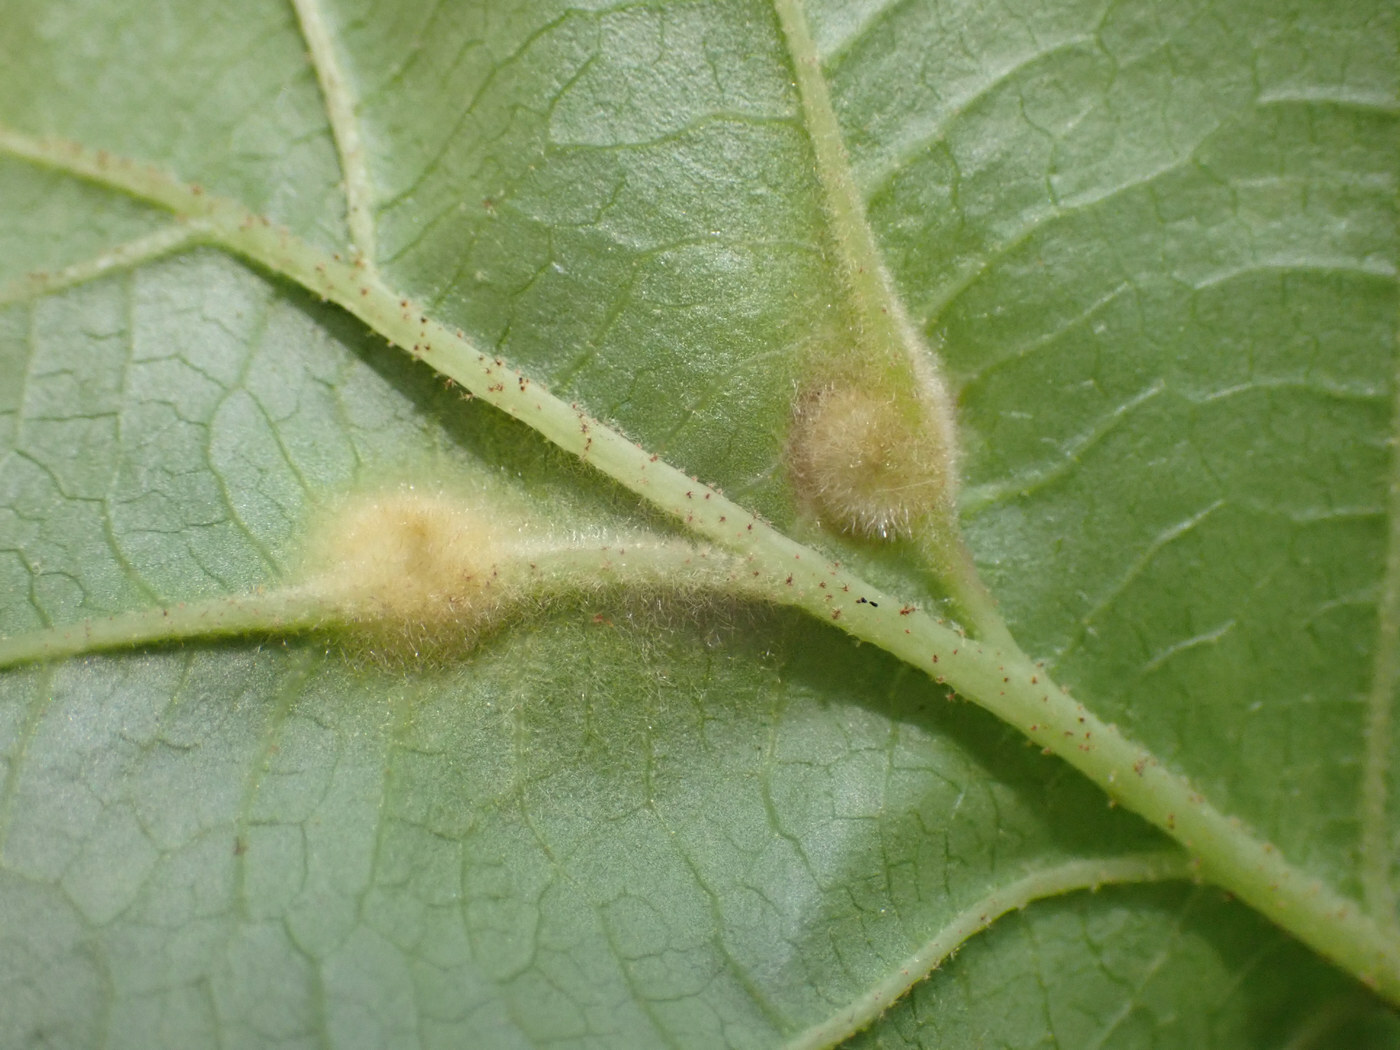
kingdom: Animalia
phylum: Arthropoda
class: Insecta
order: Hemiptera
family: Aphididae
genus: Hormaphis
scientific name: Hormaphis hamamelidis
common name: Witch-hazel cone gall aphid
